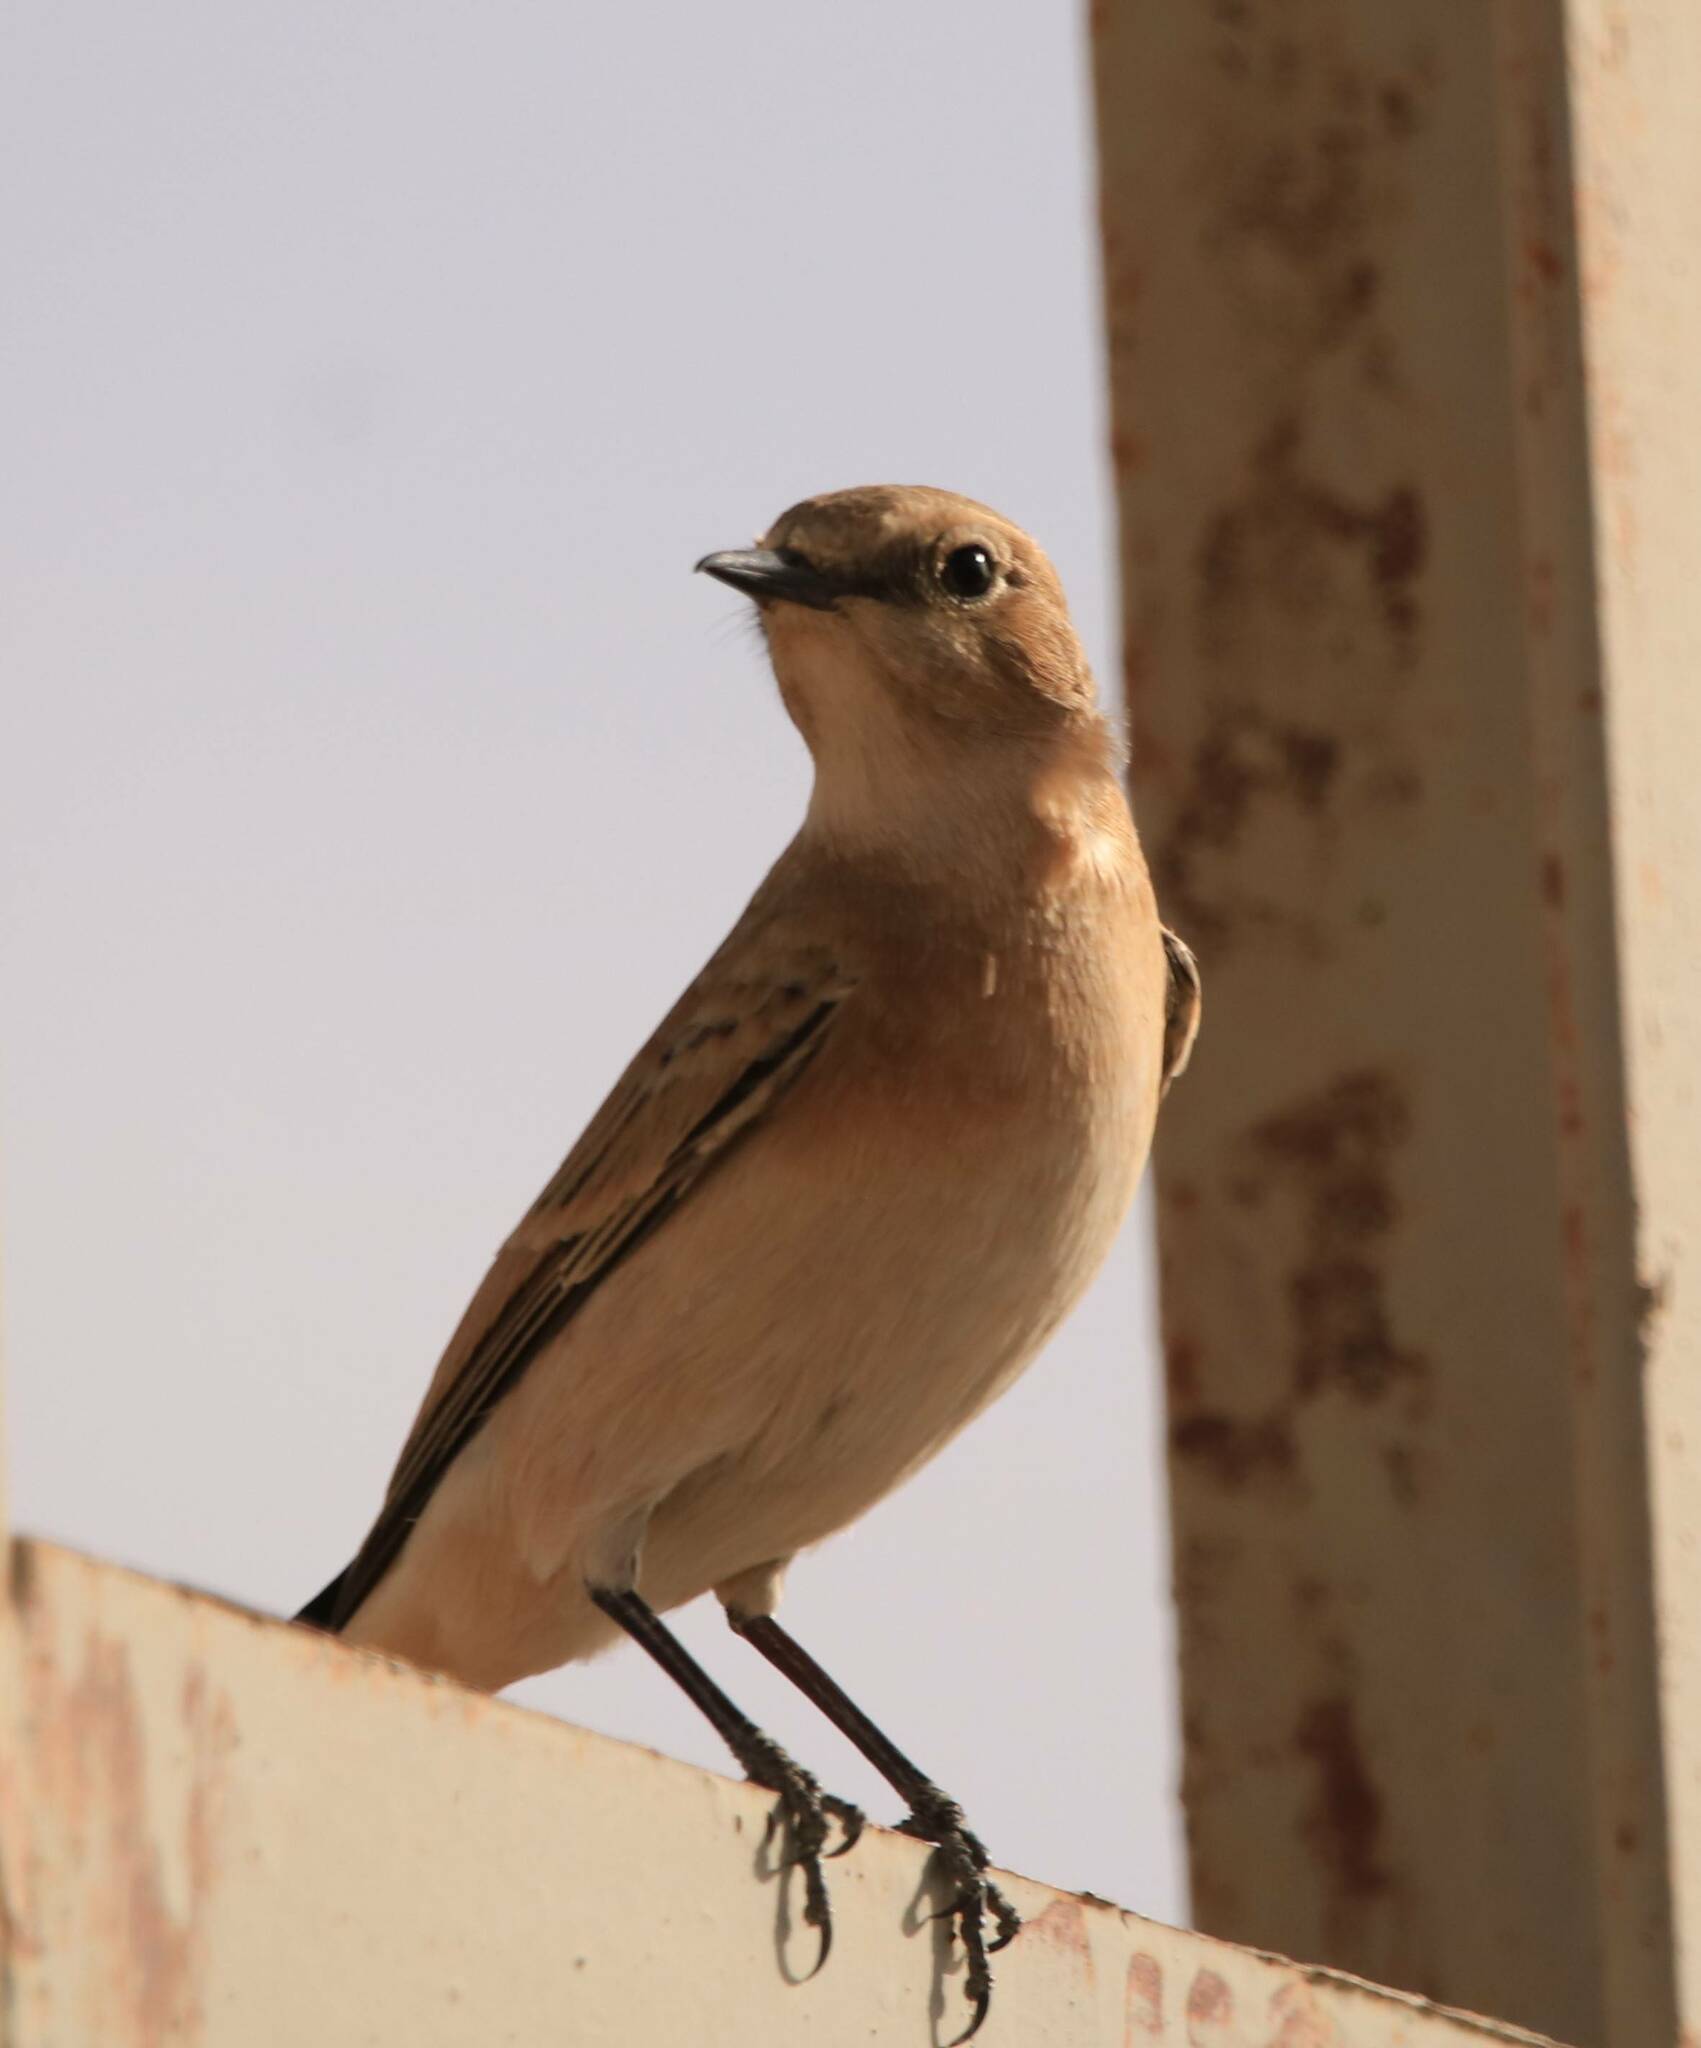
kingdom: Animalia
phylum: Chordata
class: Aves
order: Passeriformes
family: Muscicapidae
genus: Oenanthe
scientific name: Oenanthe oenanthe
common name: Northern wheatear
